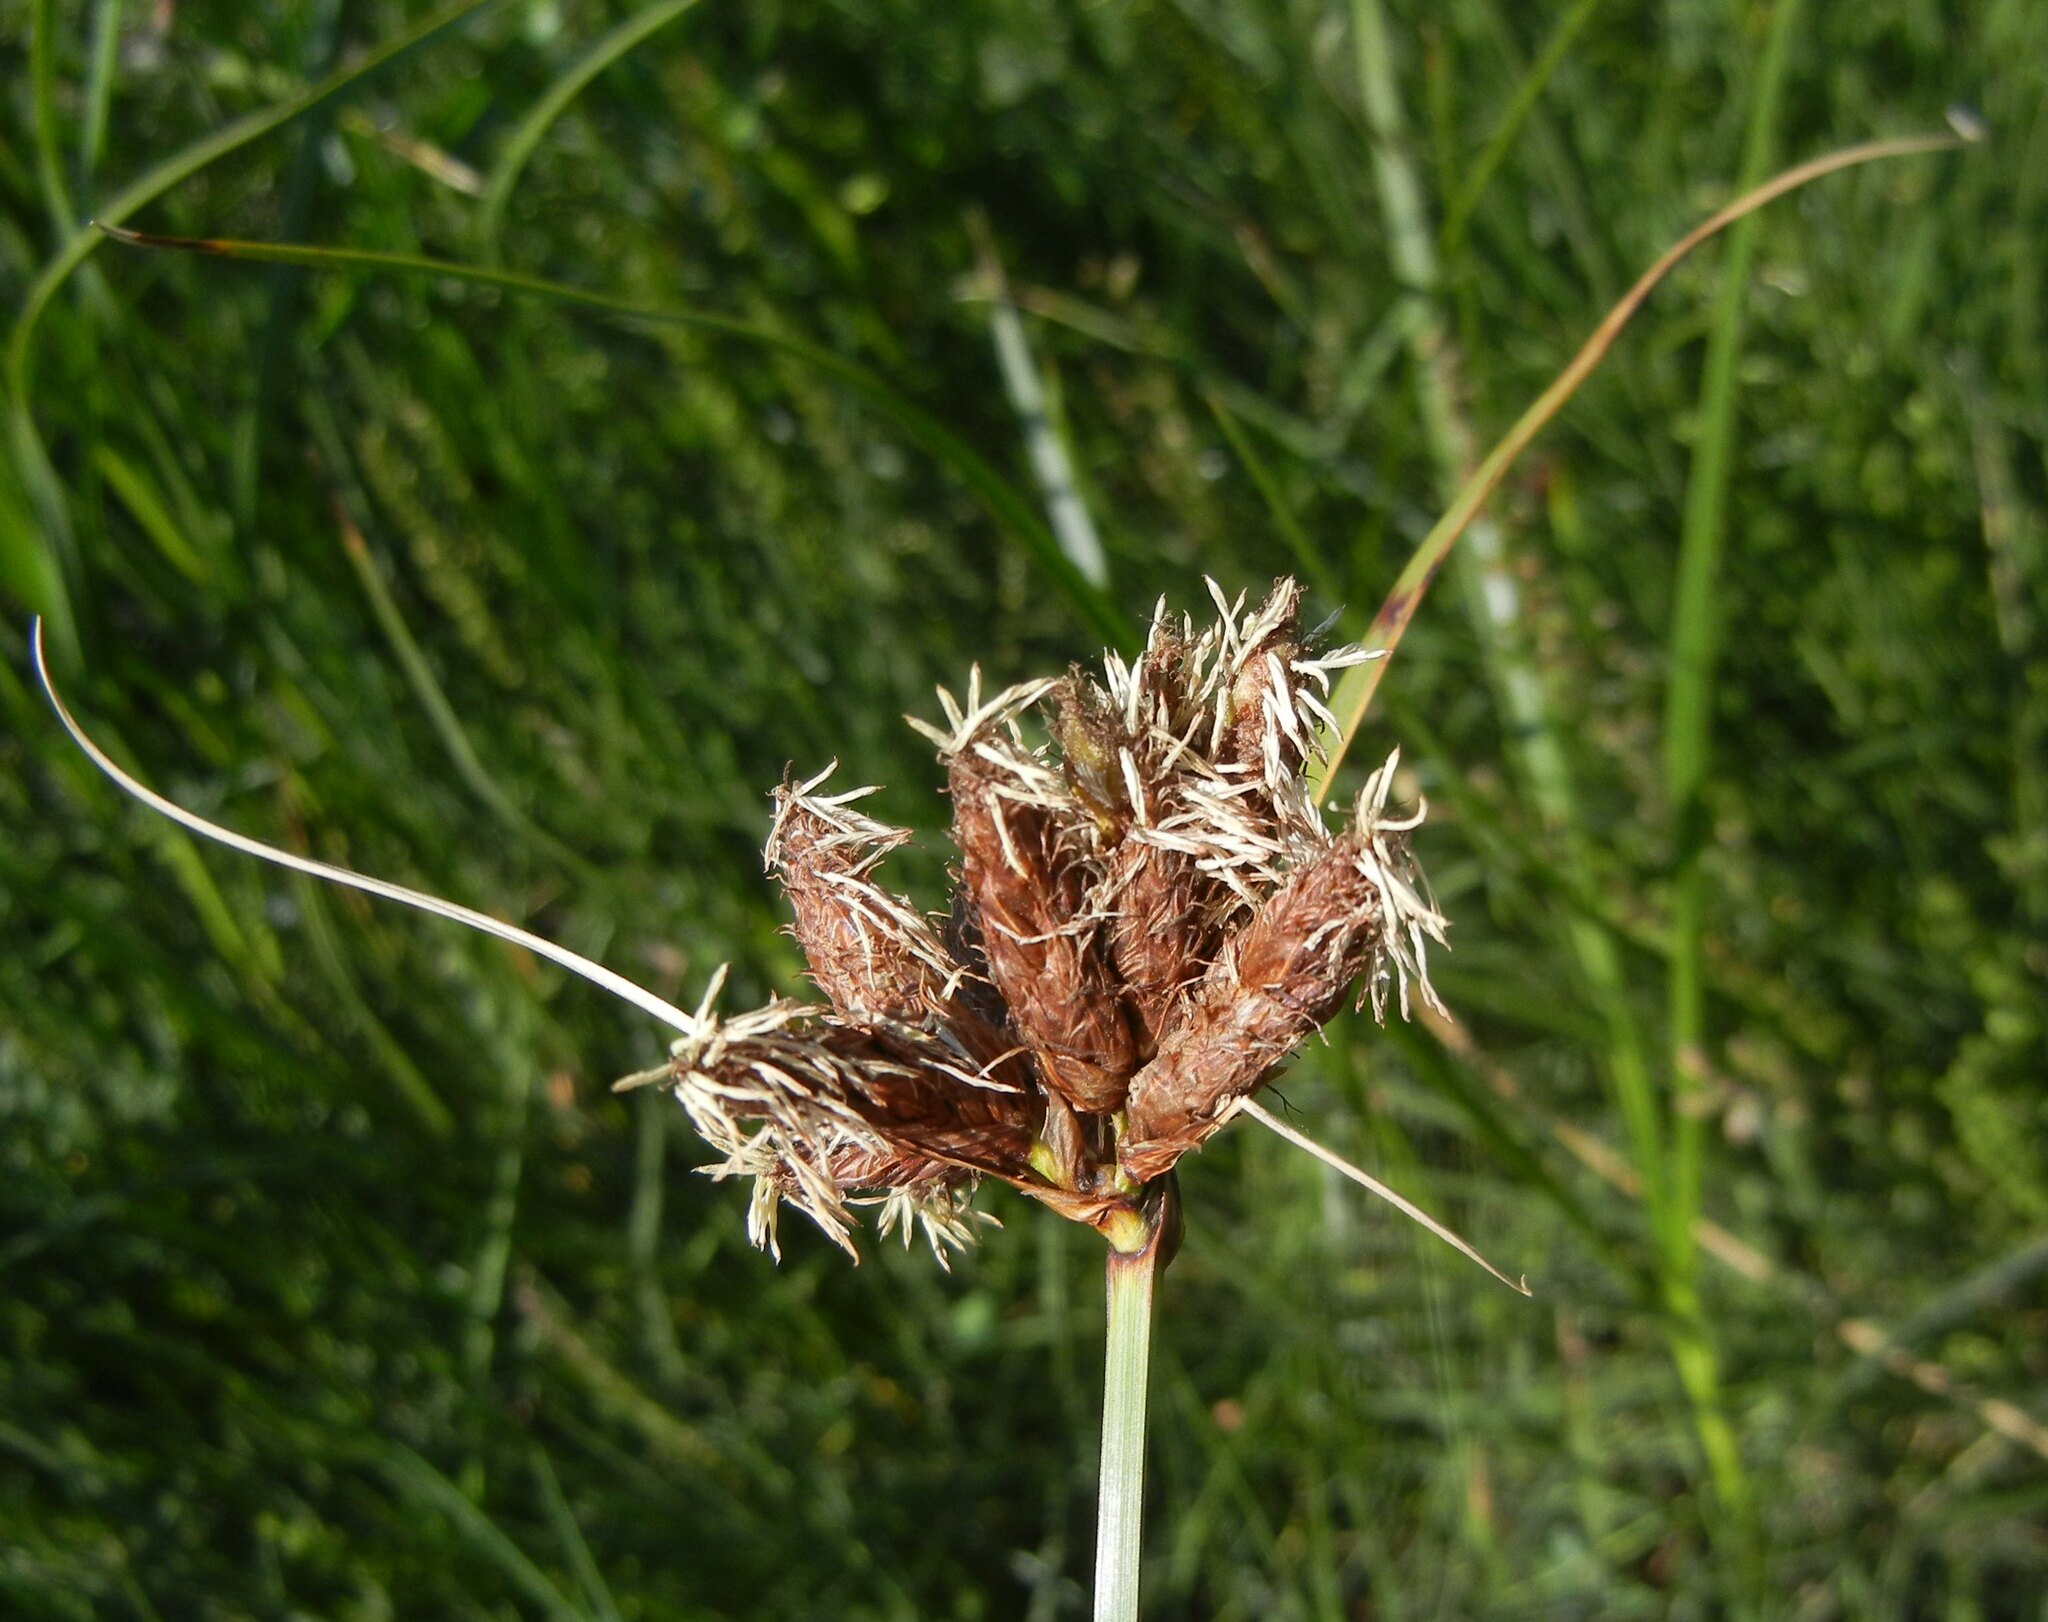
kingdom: Plantae
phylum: Tracheophyta
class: Liliopsida
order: Poales
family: Cyperaceae
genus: Bolboschoenus
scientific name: Bolboschoenus maritimus
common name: Sea club-rush
